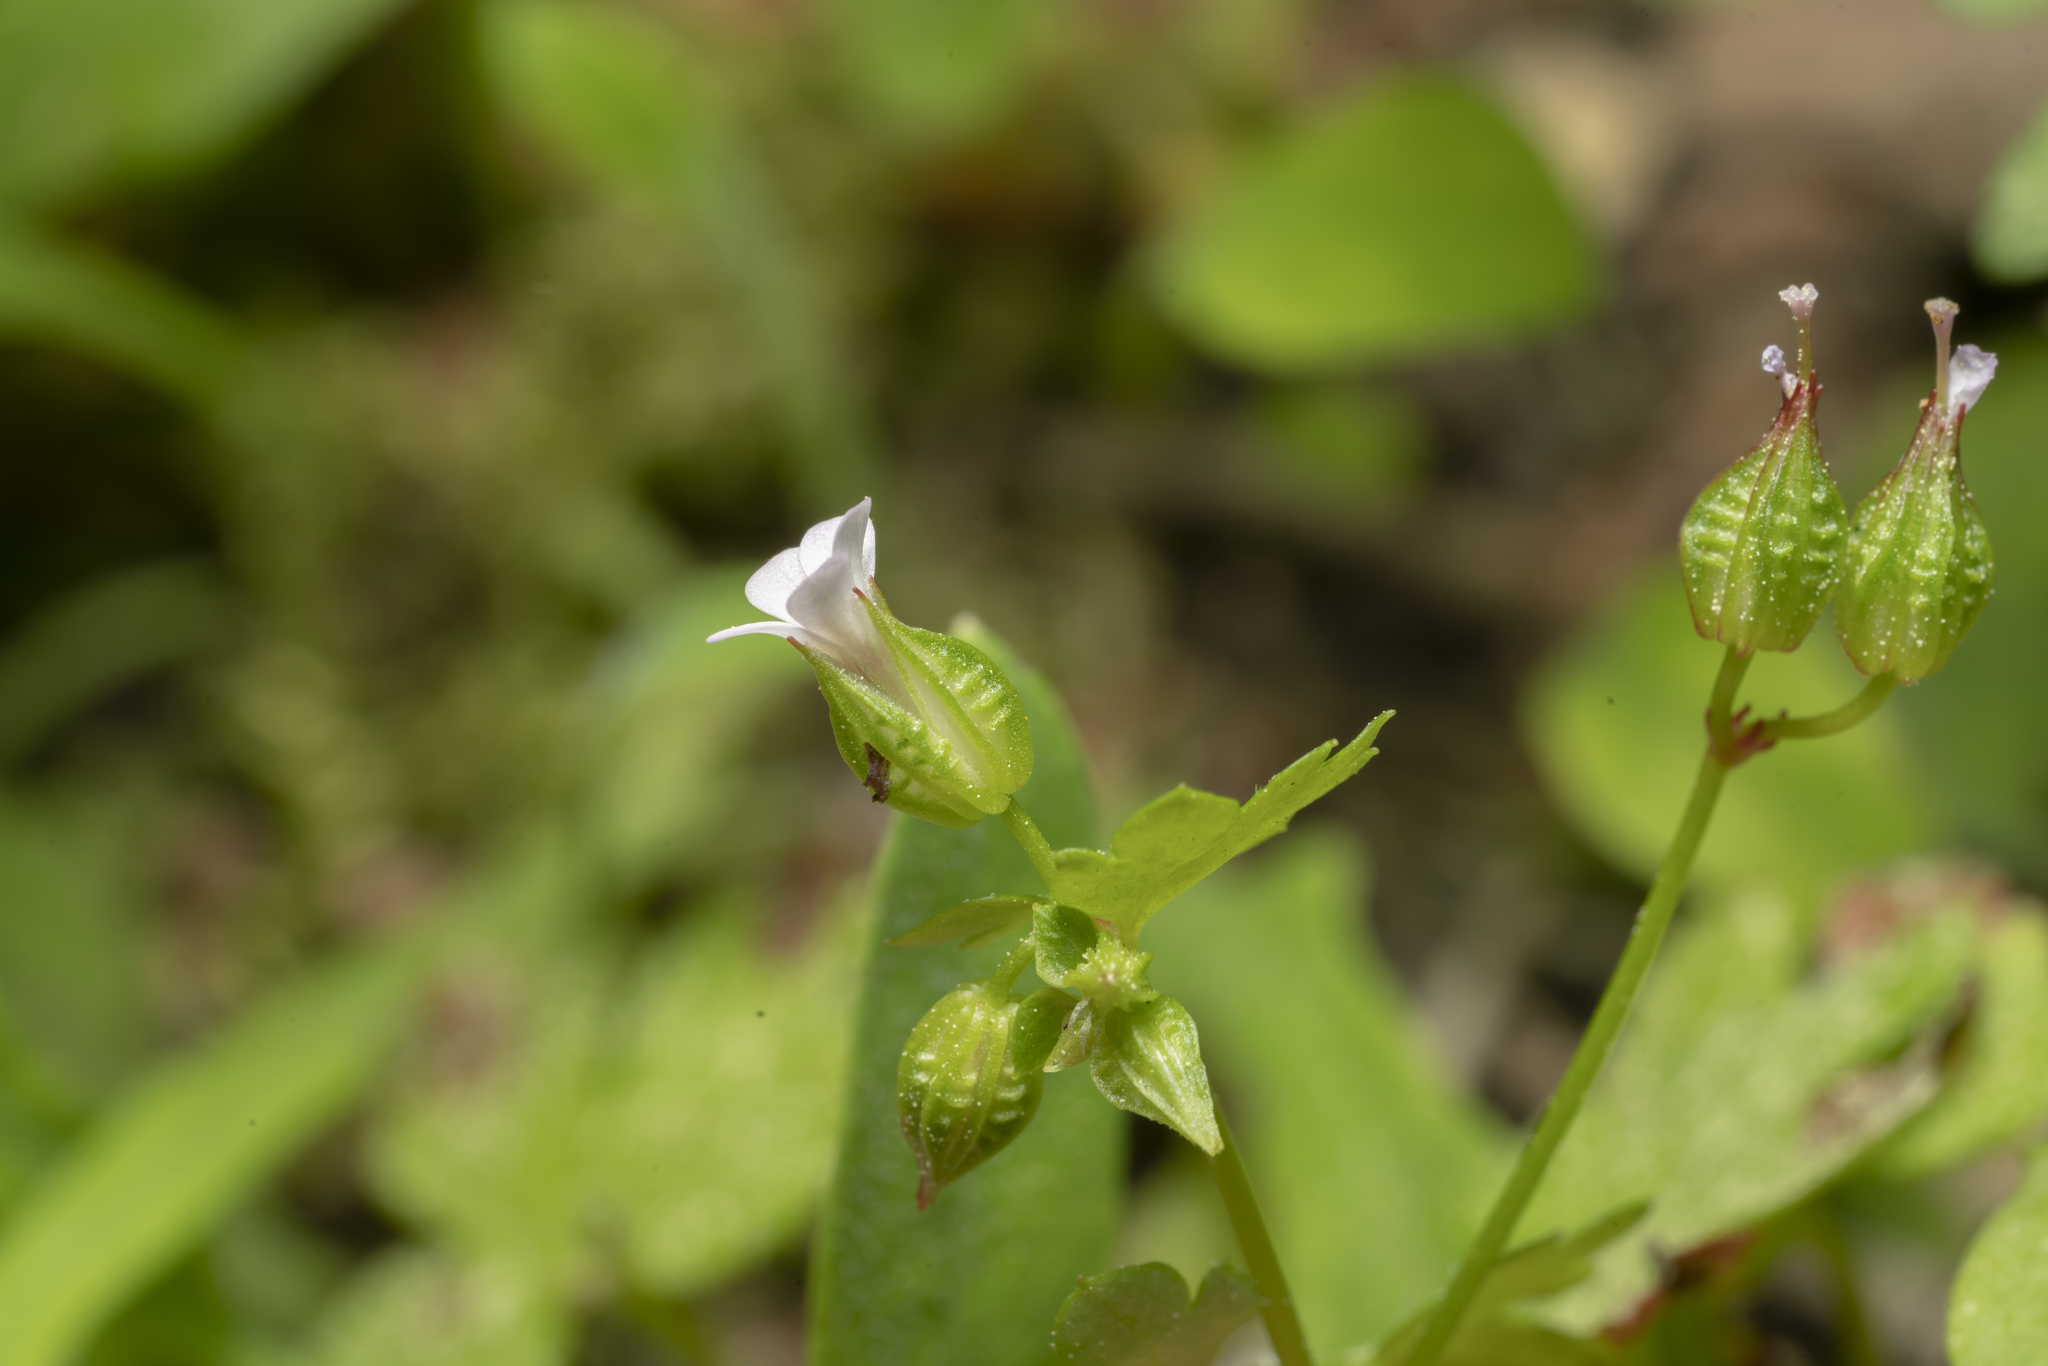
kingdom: Plantae
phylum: Tracheophyta
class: Magnoliopsida
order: Geraniales
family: Geraniaceae
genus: Geranium
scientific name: Geranium lucidum
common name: Shining crane's-bill
